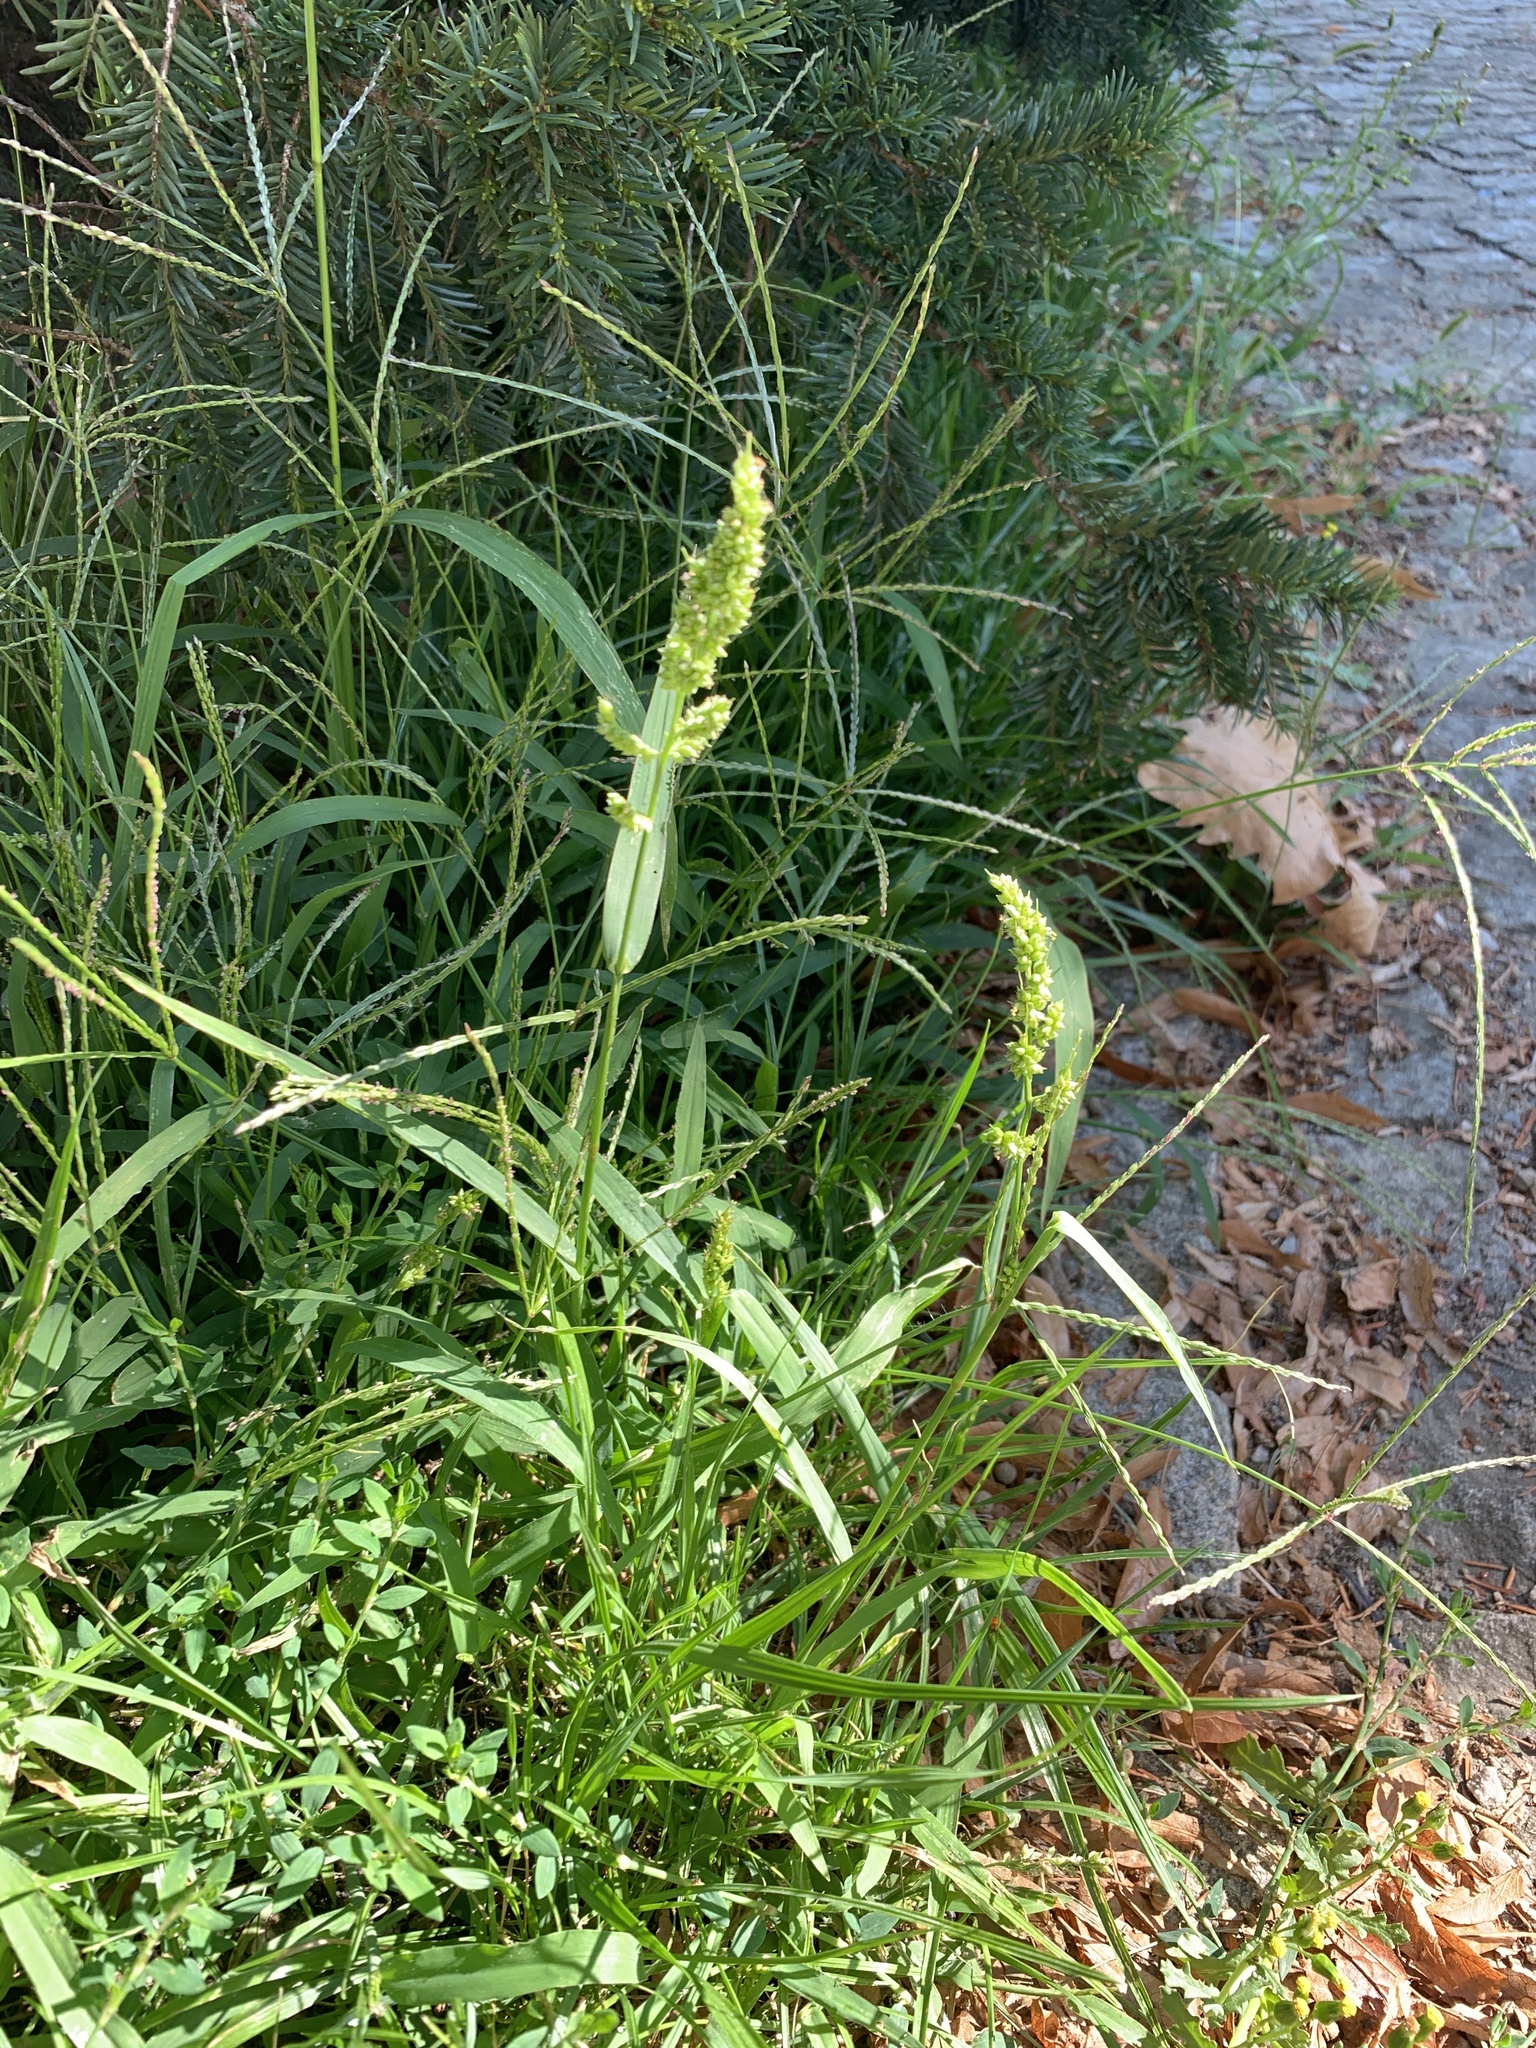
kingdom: Plantae
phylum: Tracheophyta
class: Liliopsida
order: Poales
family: Poaceae
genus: Echinochloa
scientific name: Echinochloa crus-galli
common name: Cockspur
